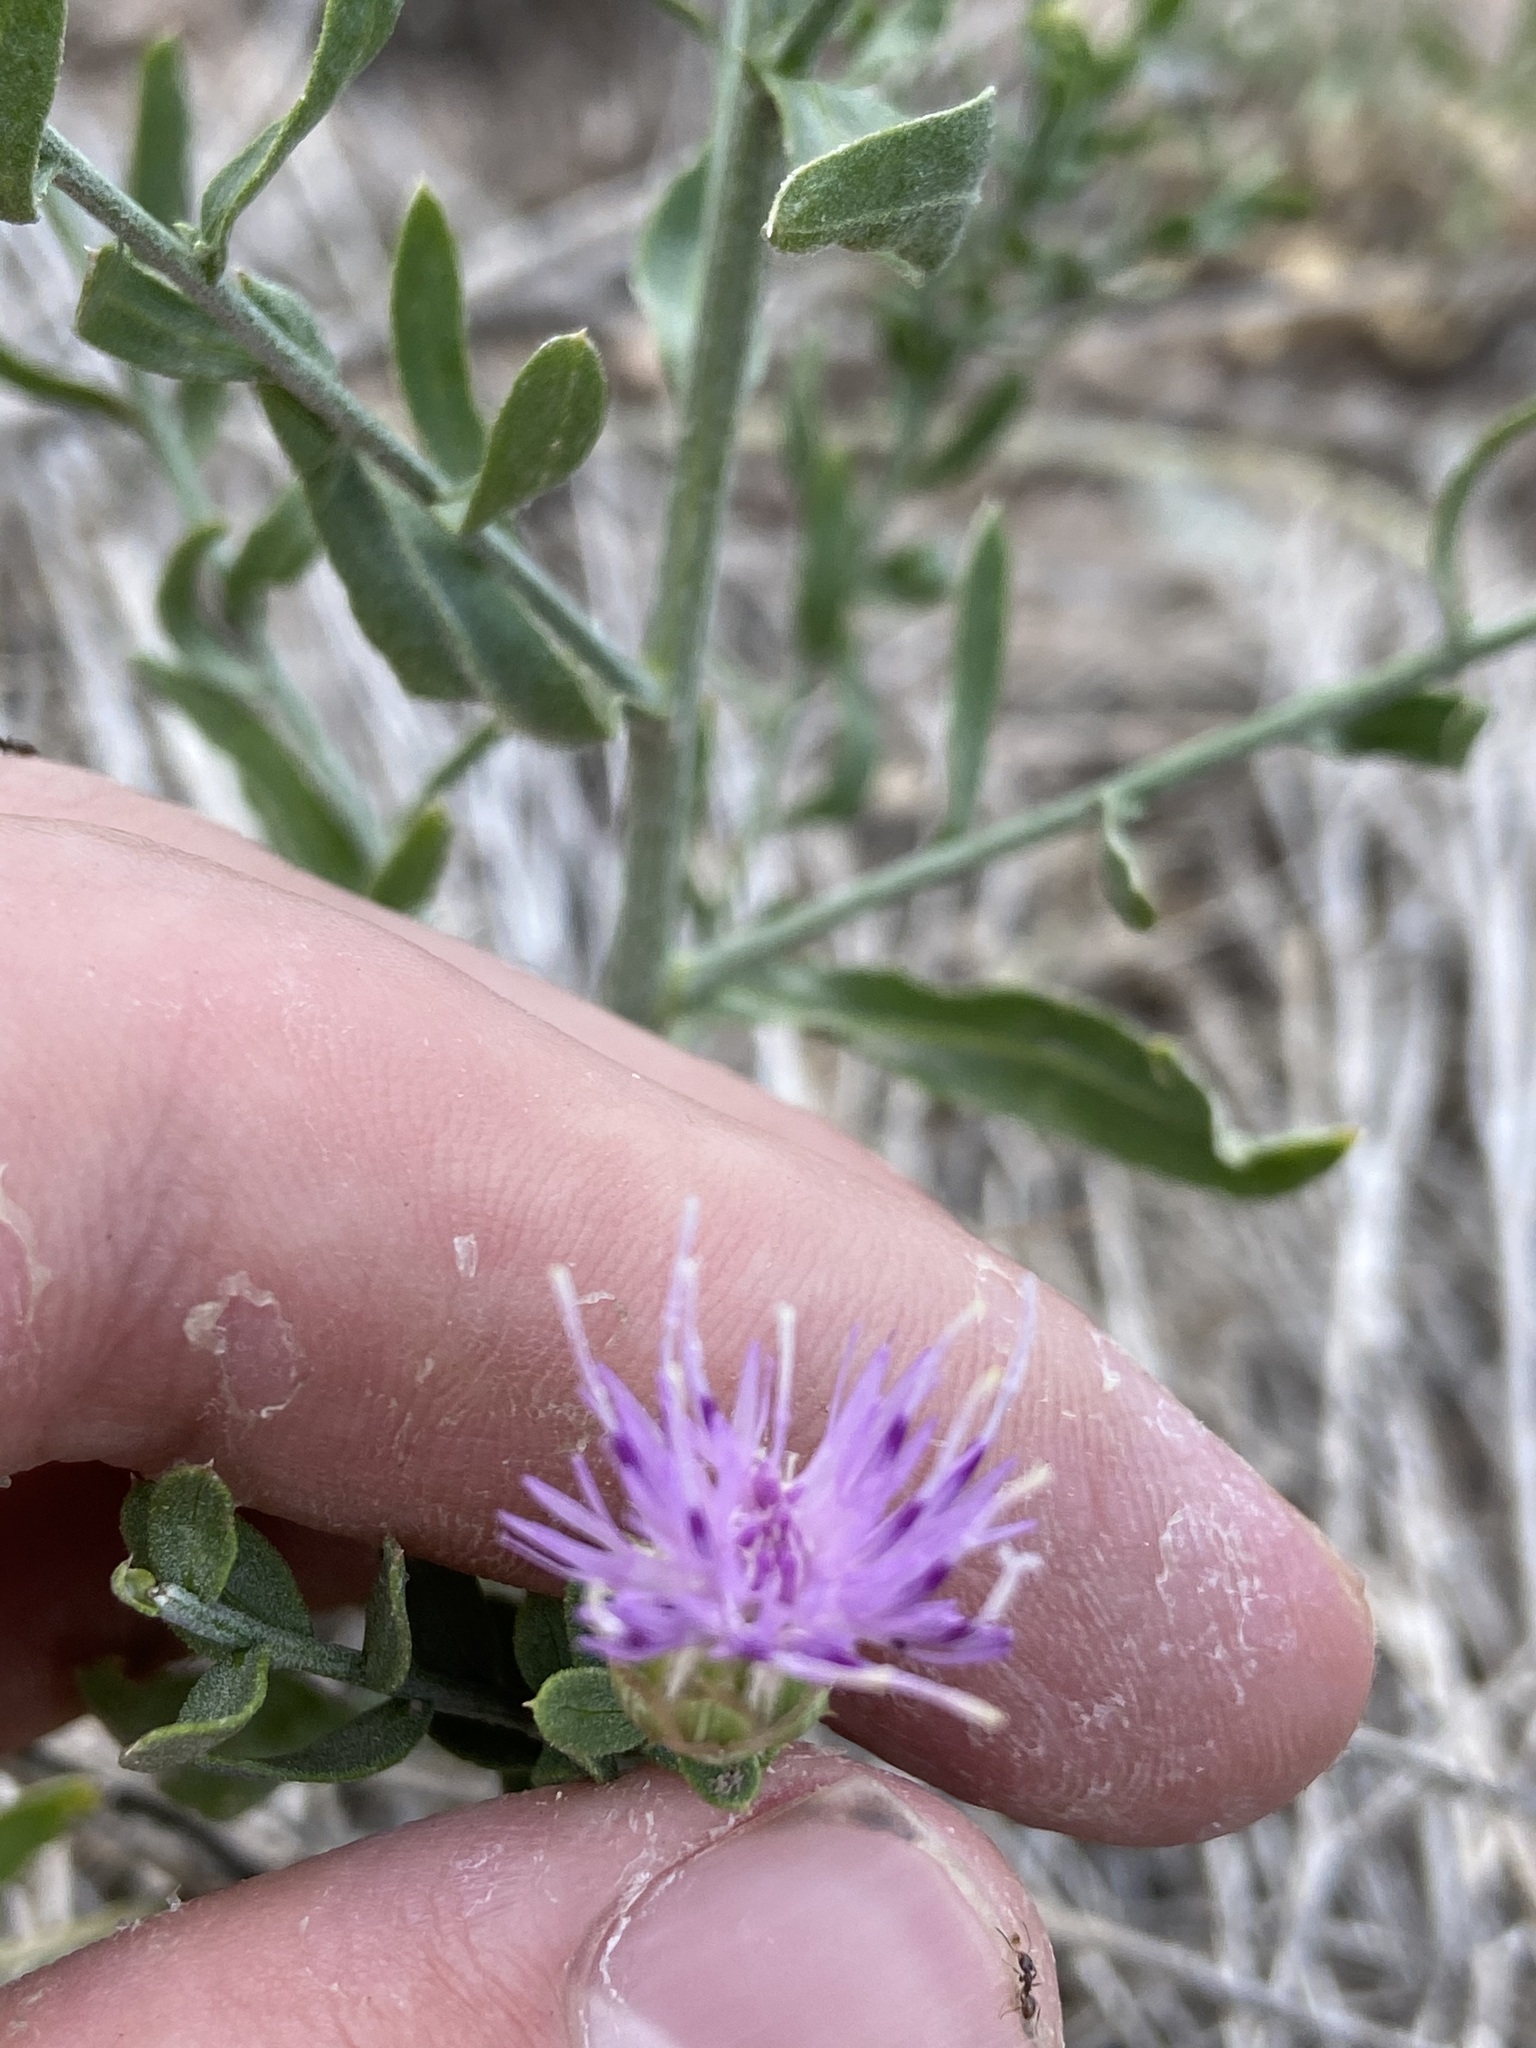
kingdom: Plantae
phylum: Tracheophyta
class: Magnoliopsida
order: Asterales
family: Asteraceae
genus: Leuzea
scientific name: Leuzea repens
